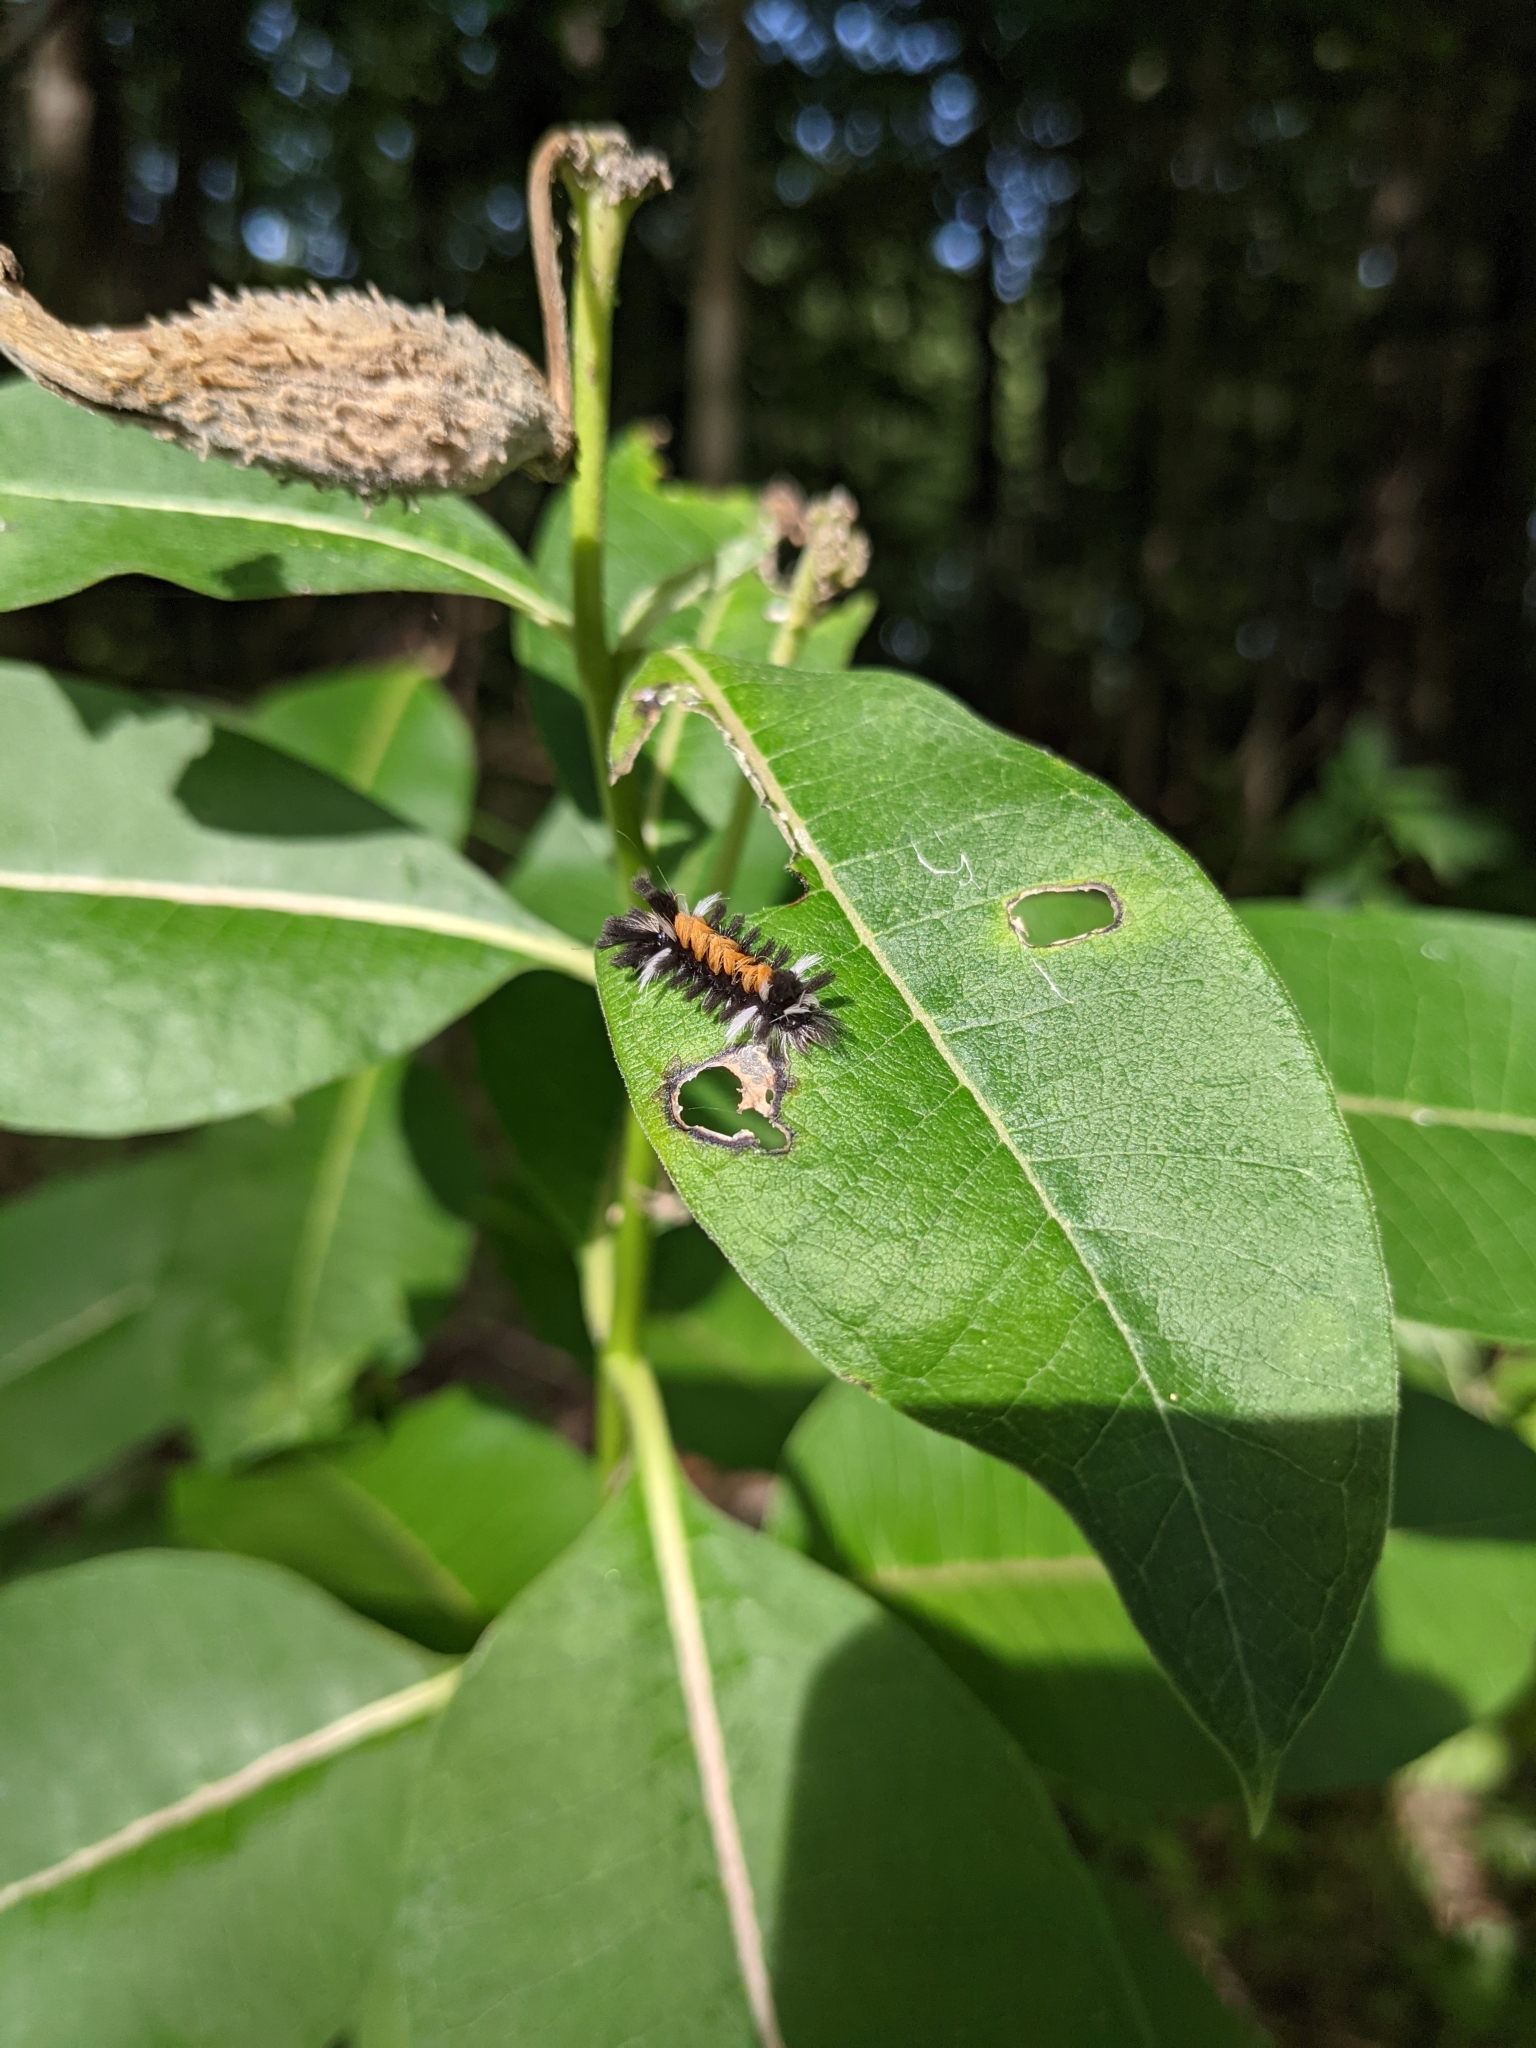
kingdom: Animalia
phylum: Arthropoda
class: Insecta
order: Lepidoptera
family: Erebidae
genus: Euchaetes
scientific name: Euchaetes egle
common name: Milkweed tussock moth
